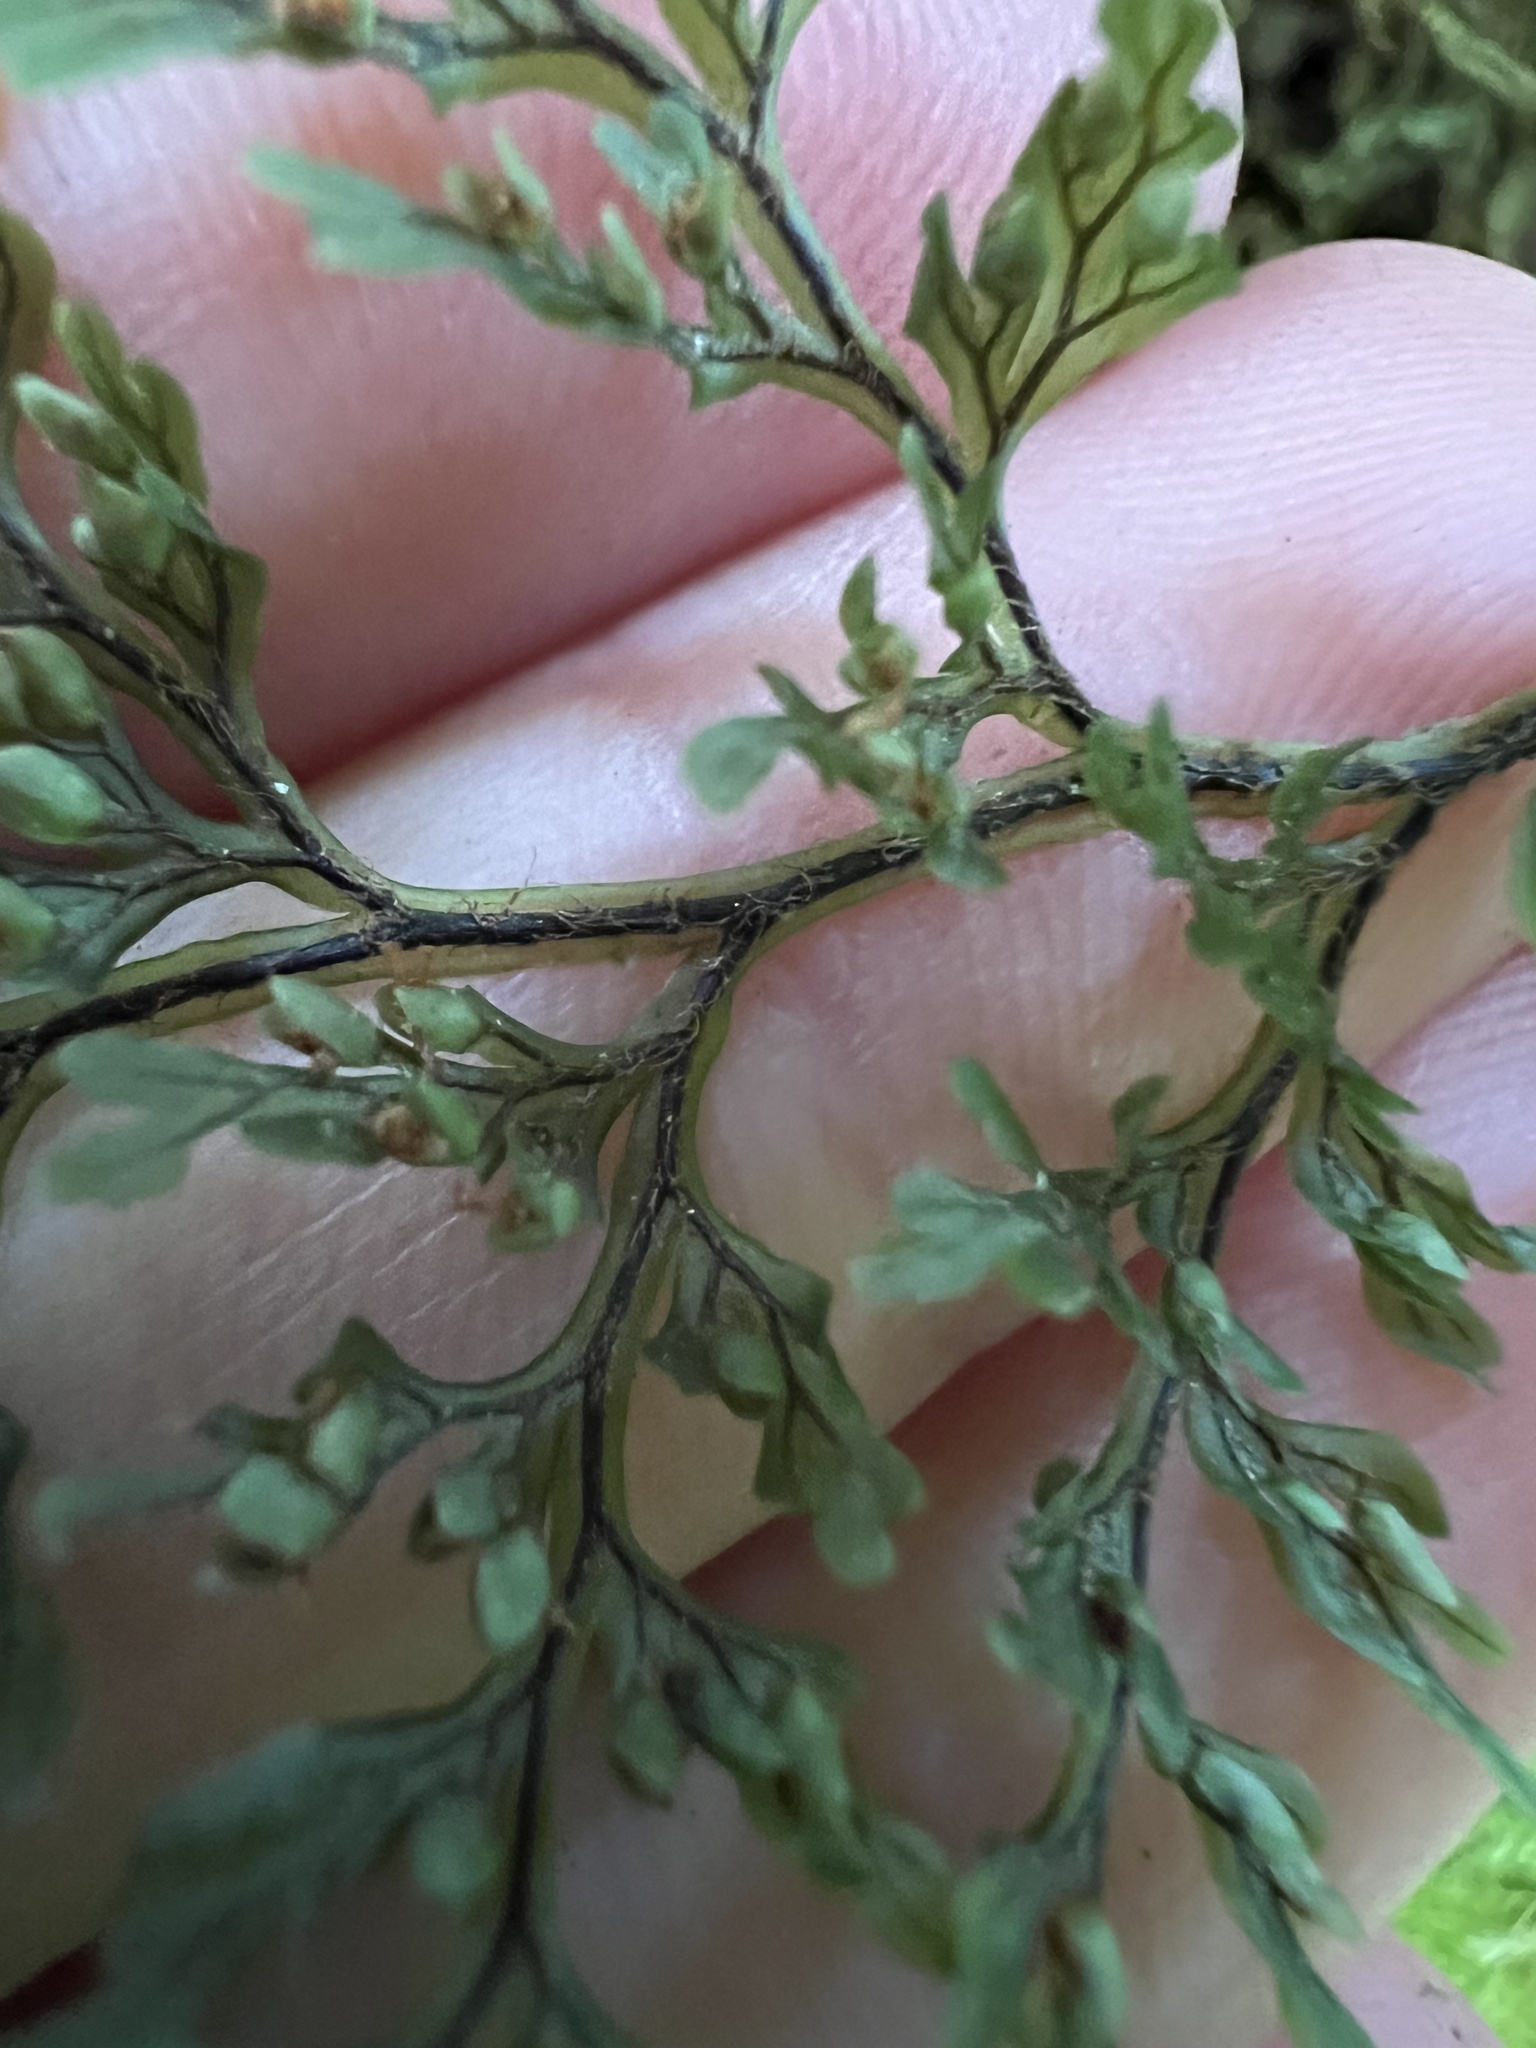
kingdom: Plantae
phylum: Tracheophyta
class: Polypodiopsida
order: Hymenophyllales
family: Hymenophyllaceae
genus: Hymenophyllum
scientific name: Hymenophyllum villosum
